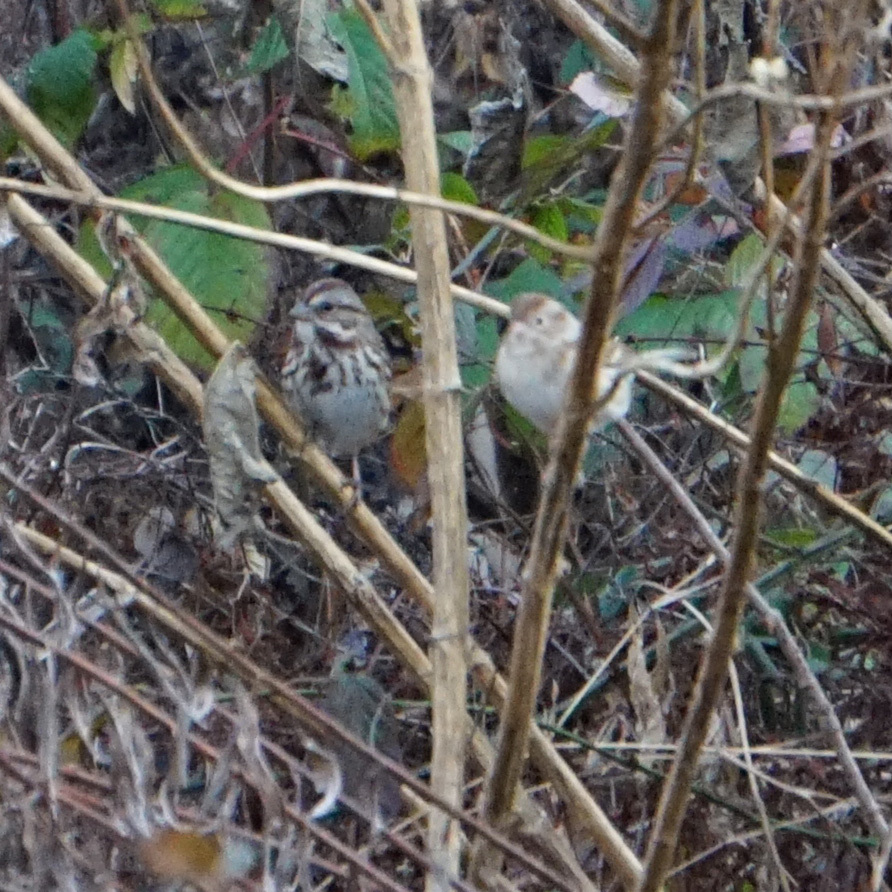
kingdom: Animalia
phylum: Chordata
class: Aves
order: Passeriformes
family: Passerellidae
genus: Melospiza
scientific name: Melospiza melodia
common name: Song sparrow
